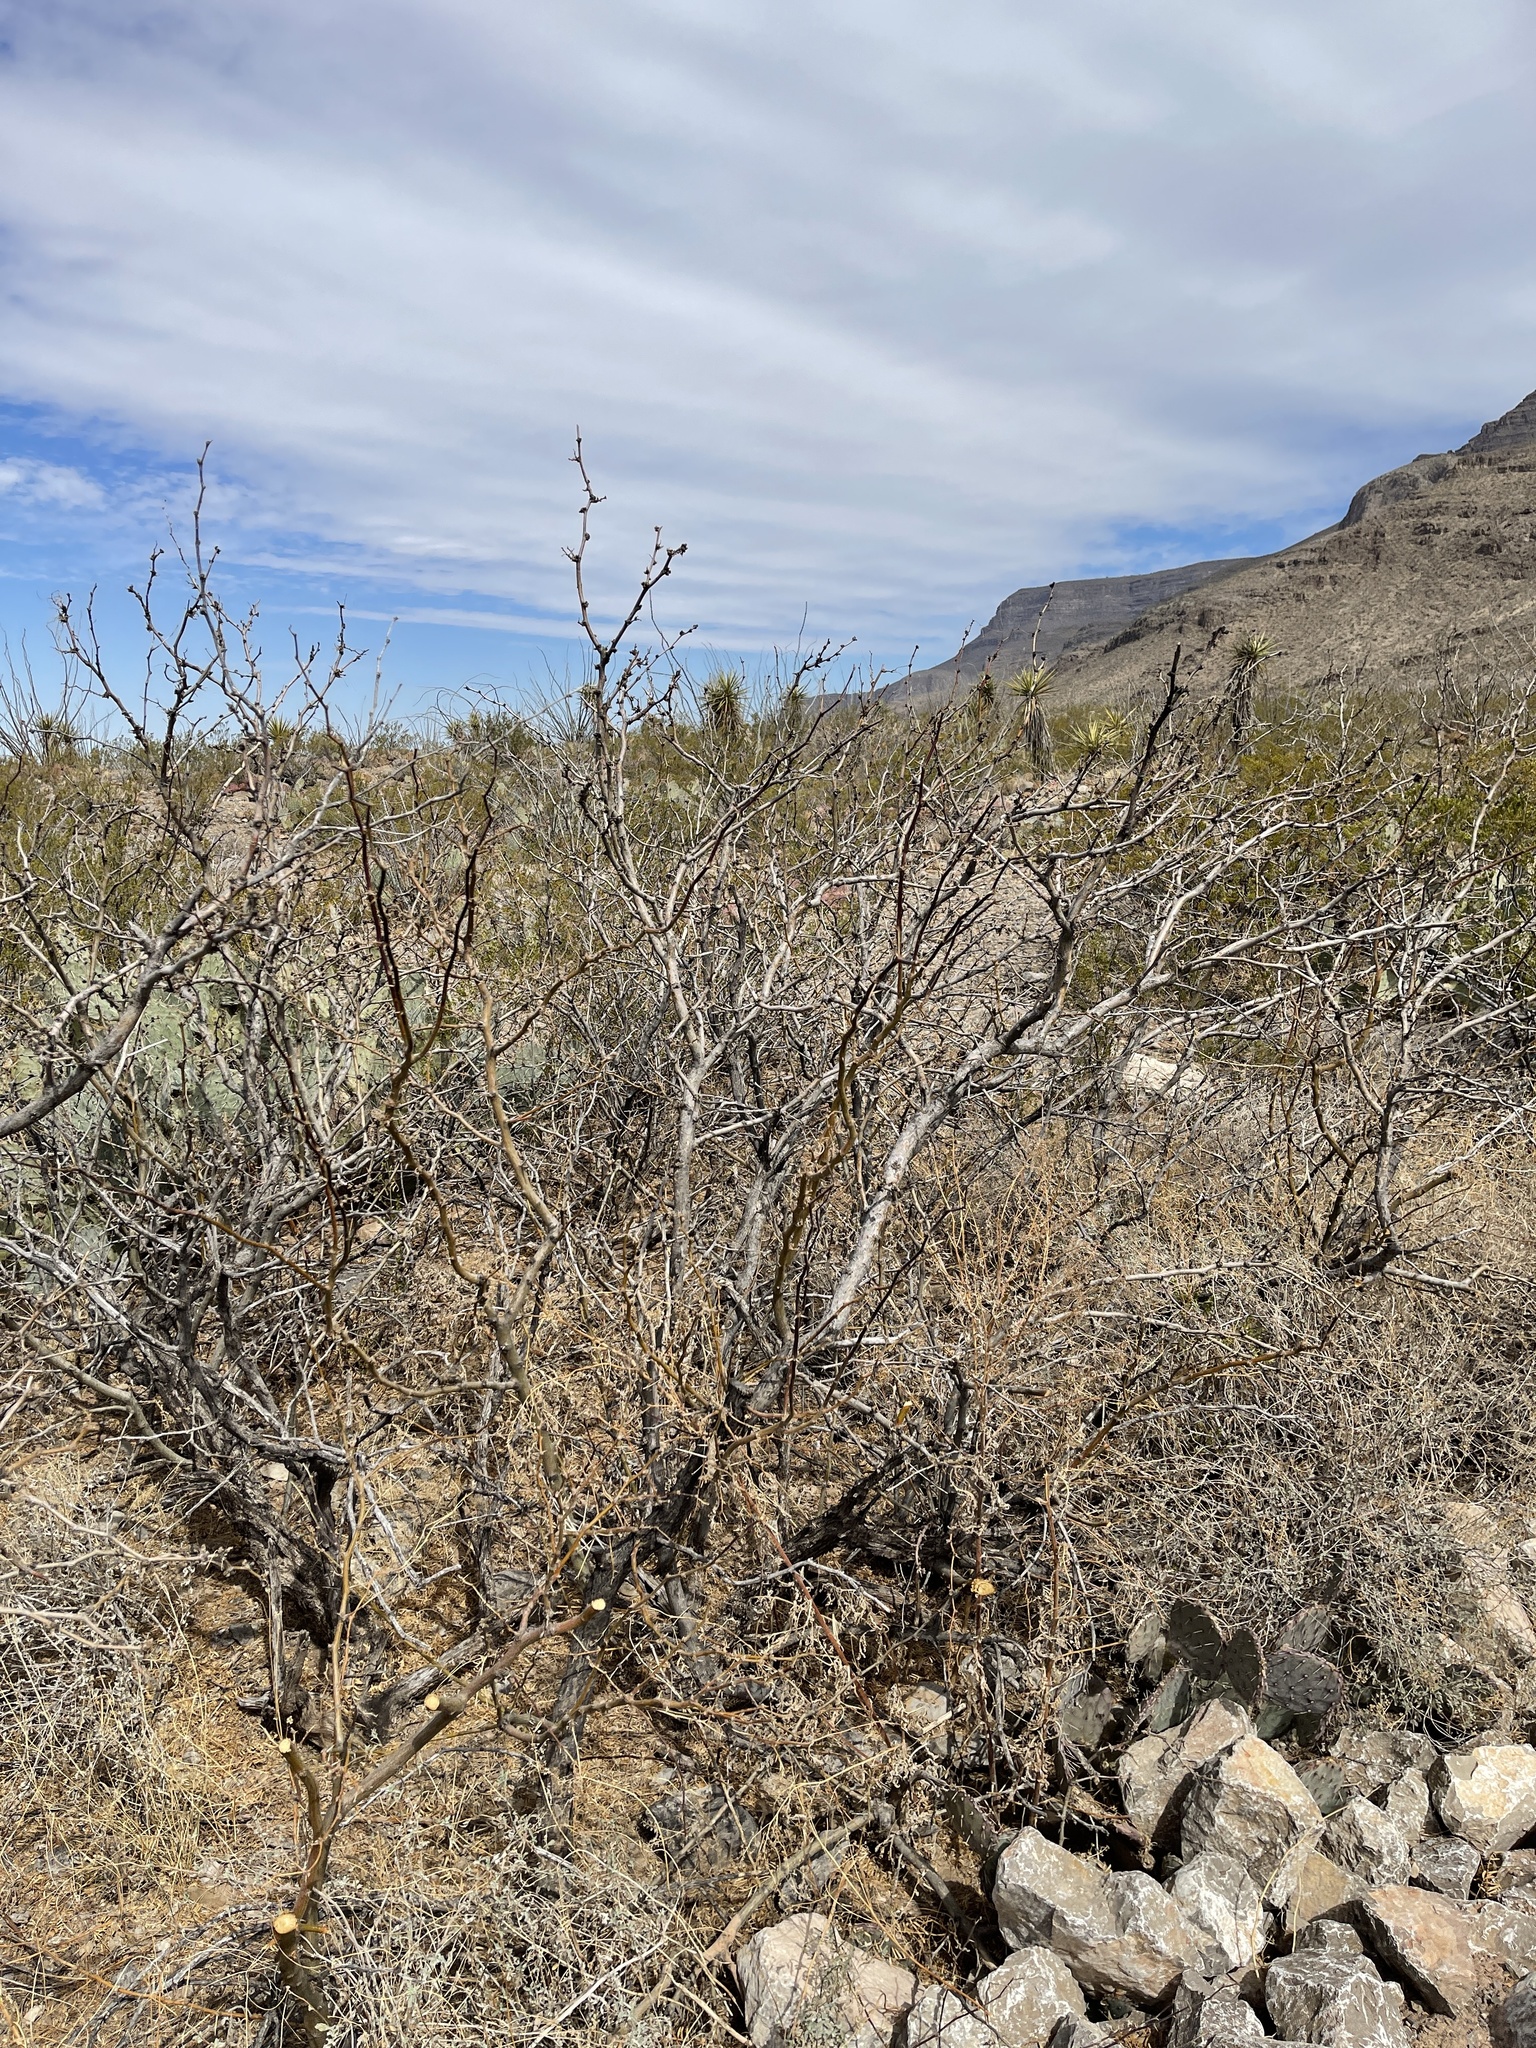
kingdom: Plantae
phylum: Tracheophyta
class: Magnoliopsida
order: Fabales
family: Fabaceae
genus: Prosopis
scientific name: Prosopis glandulosa
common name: Honey mesquite
